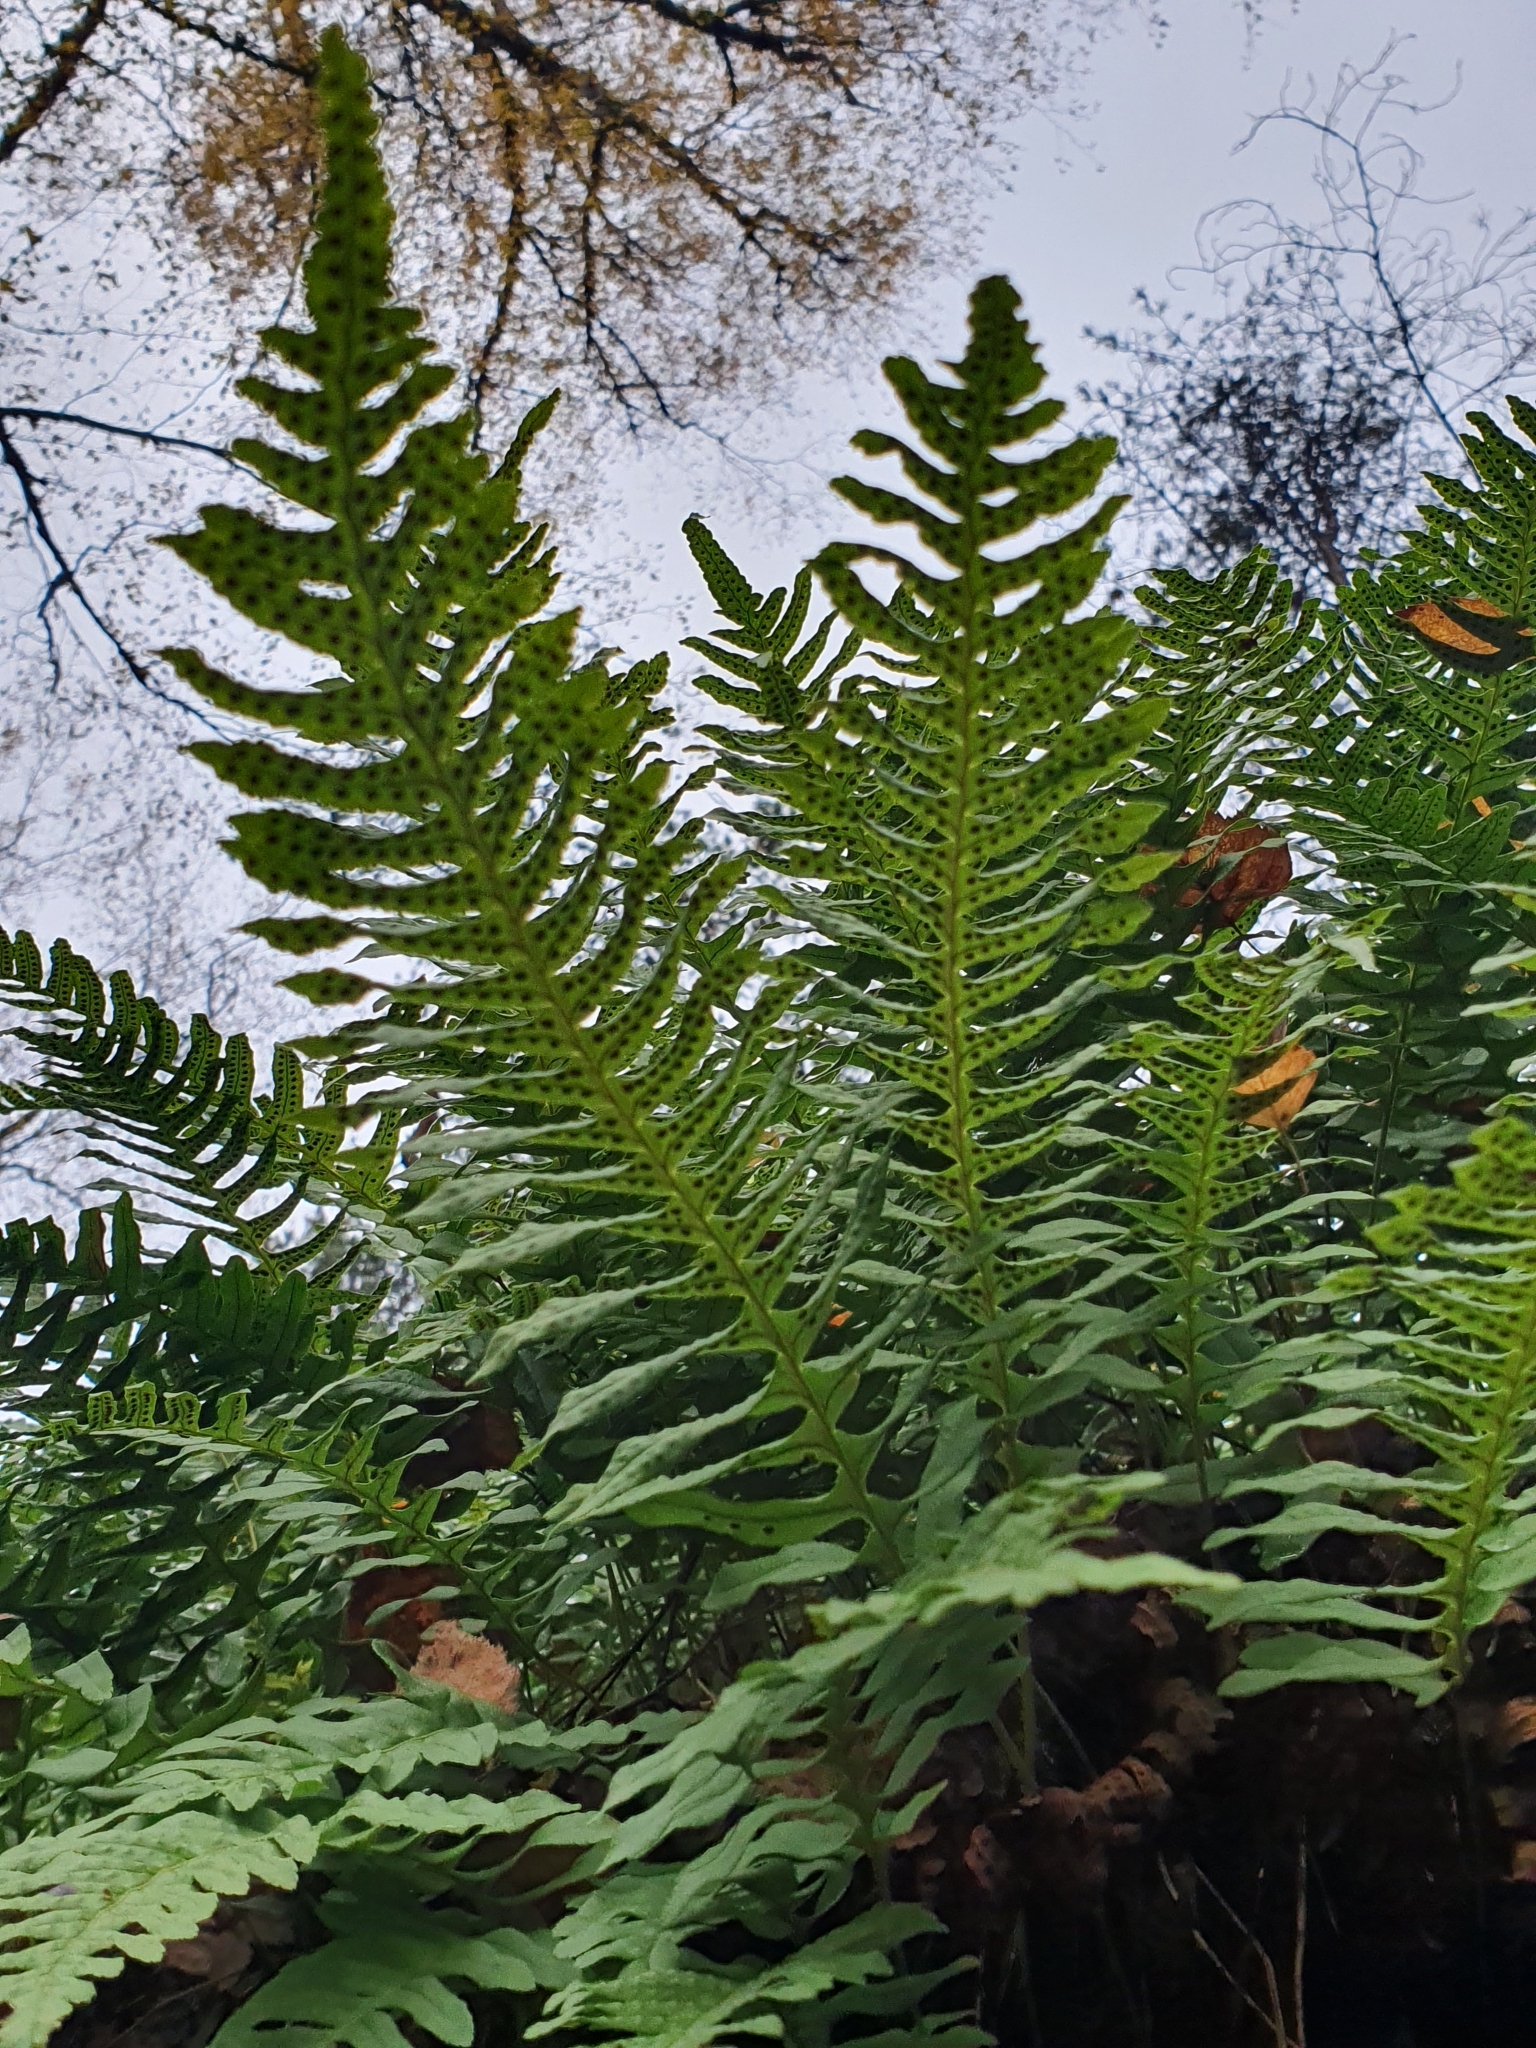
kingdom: Plantae
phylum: Tracheophyta
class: Polypodiopsida
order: Polypodiales
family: Polypodiaceae
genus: Polypodium
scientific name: Polypodium vulgare
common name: Common polypody
